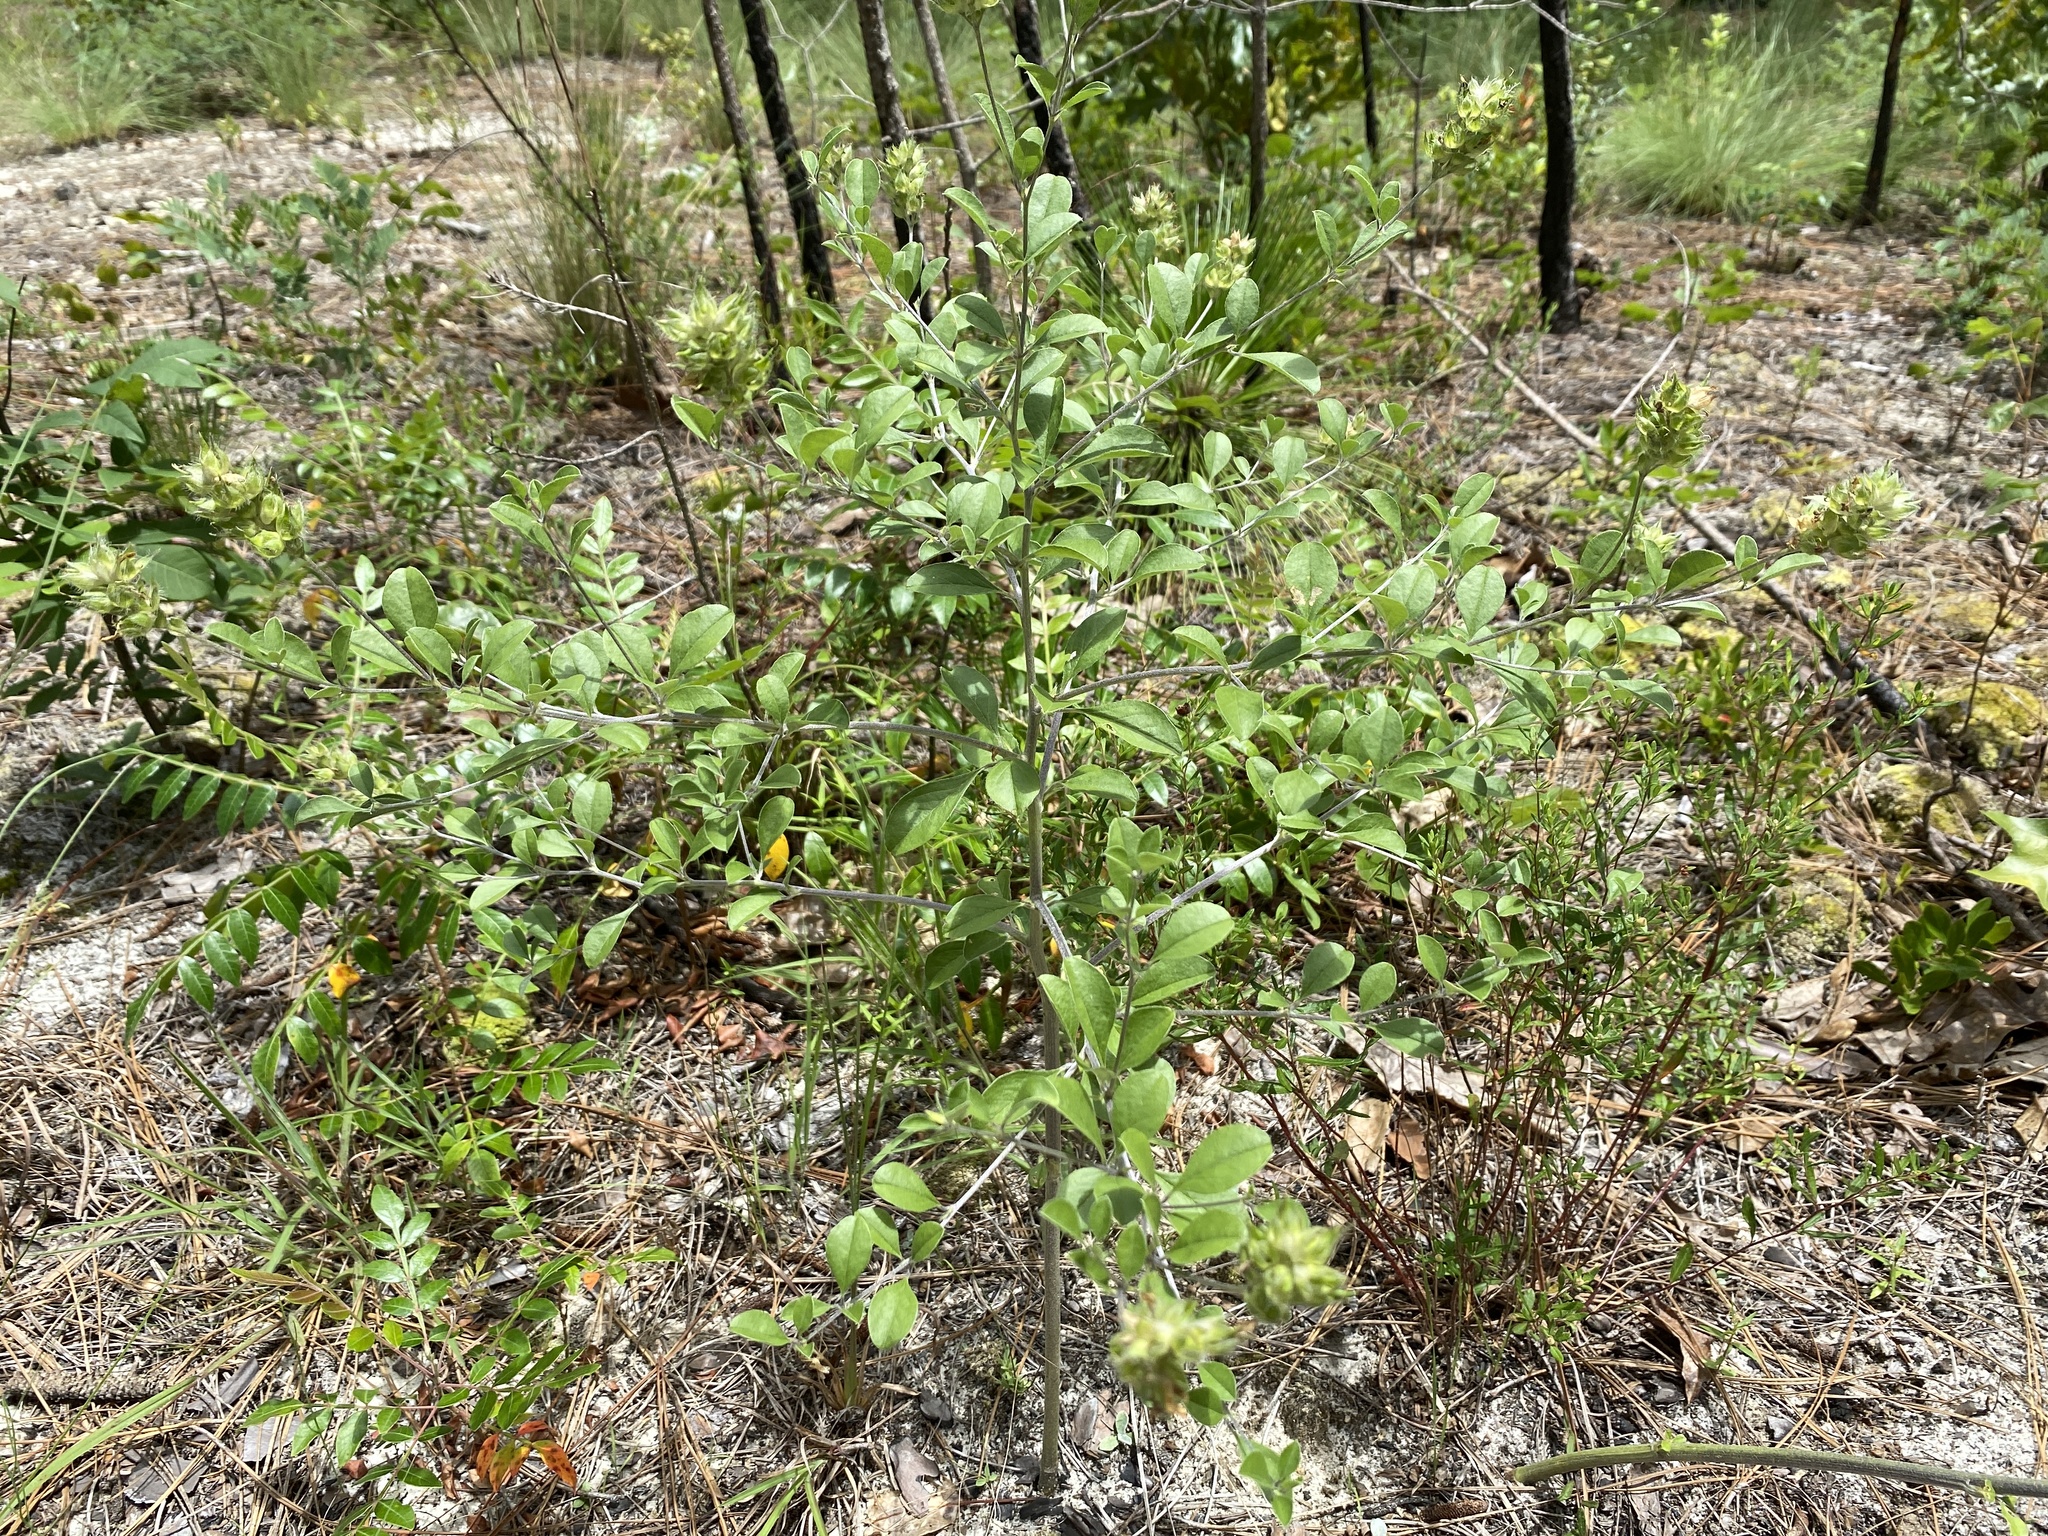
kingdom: Plantae
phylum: Tracheophyta
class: Magnoliopsida
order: Fabales
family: Fabaceae
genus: Pediomelum
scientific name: Pediomelum canescens
